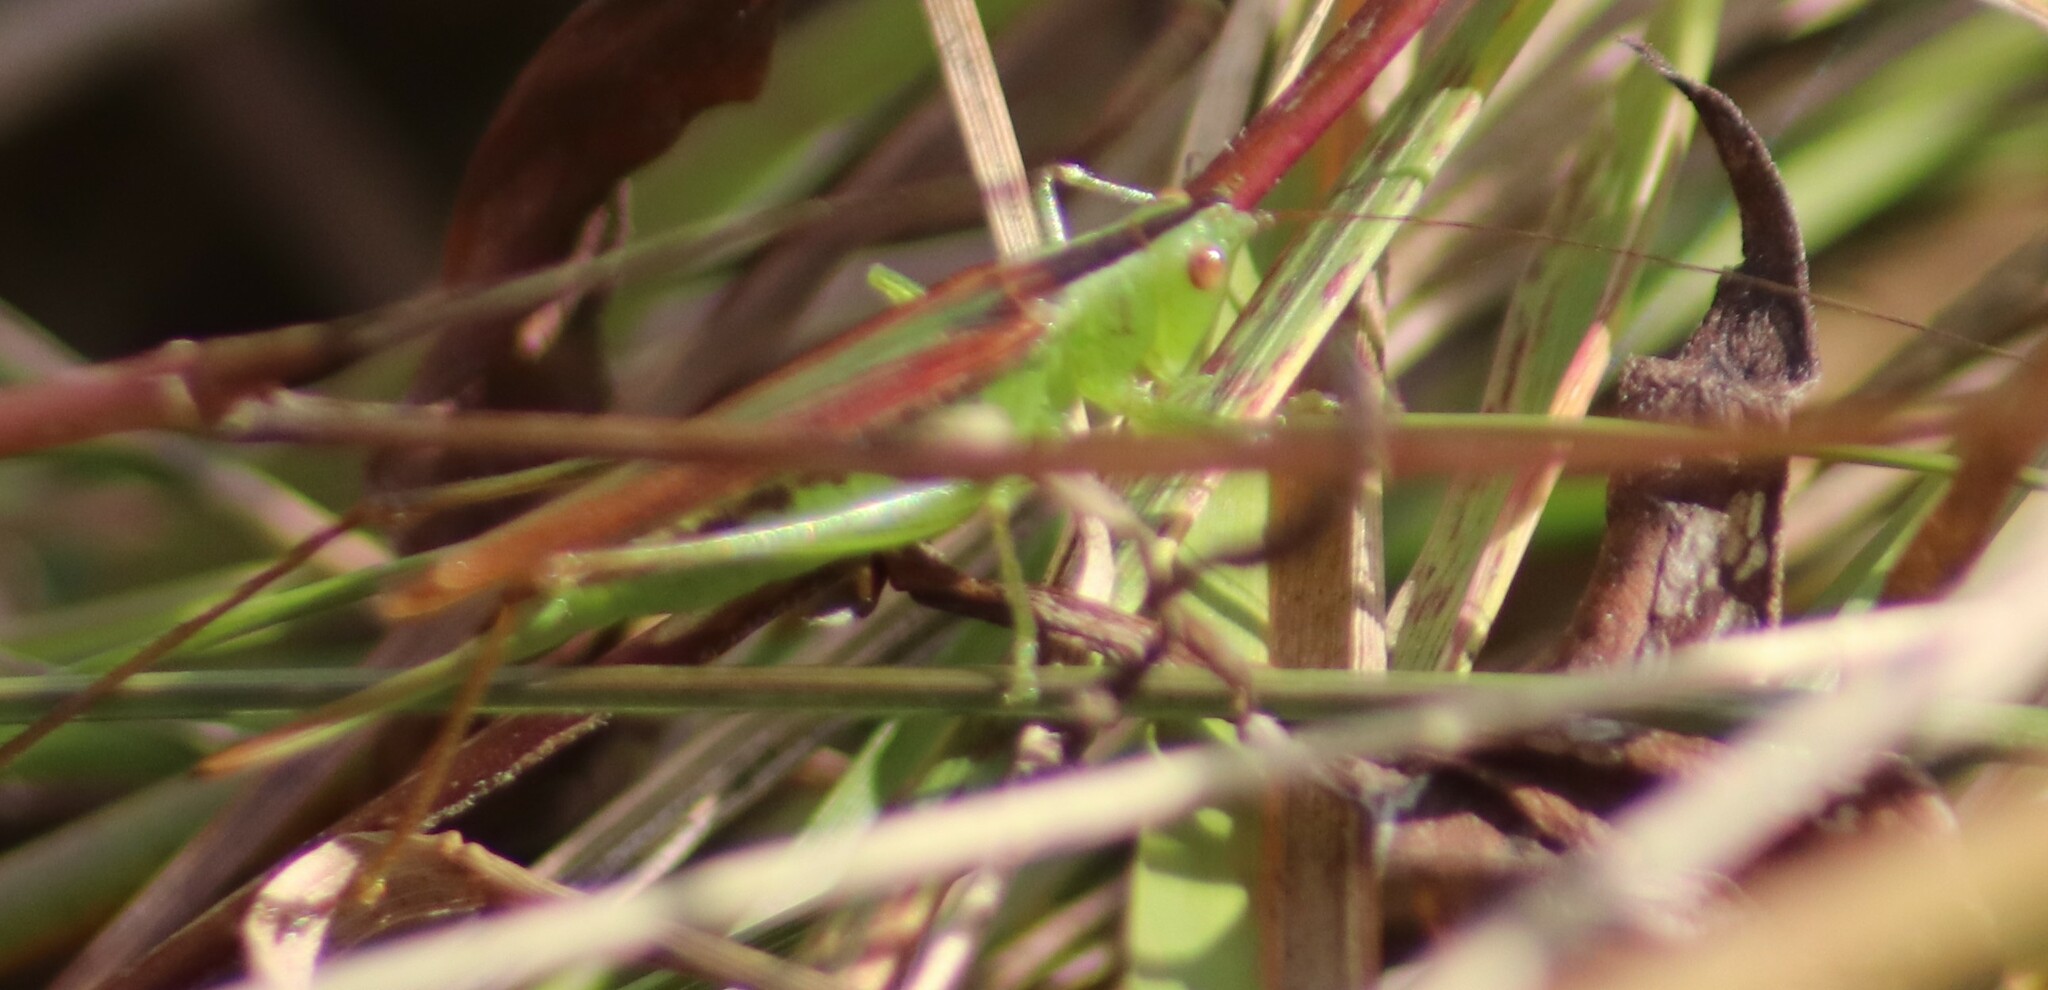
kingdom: Animalia
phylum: Arthropoda
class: Insecta
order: Orthoptera
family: Tettigoniidae
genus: Conocephalus
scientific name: Conocephalus fasciatus
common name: Slender meadow katydid
